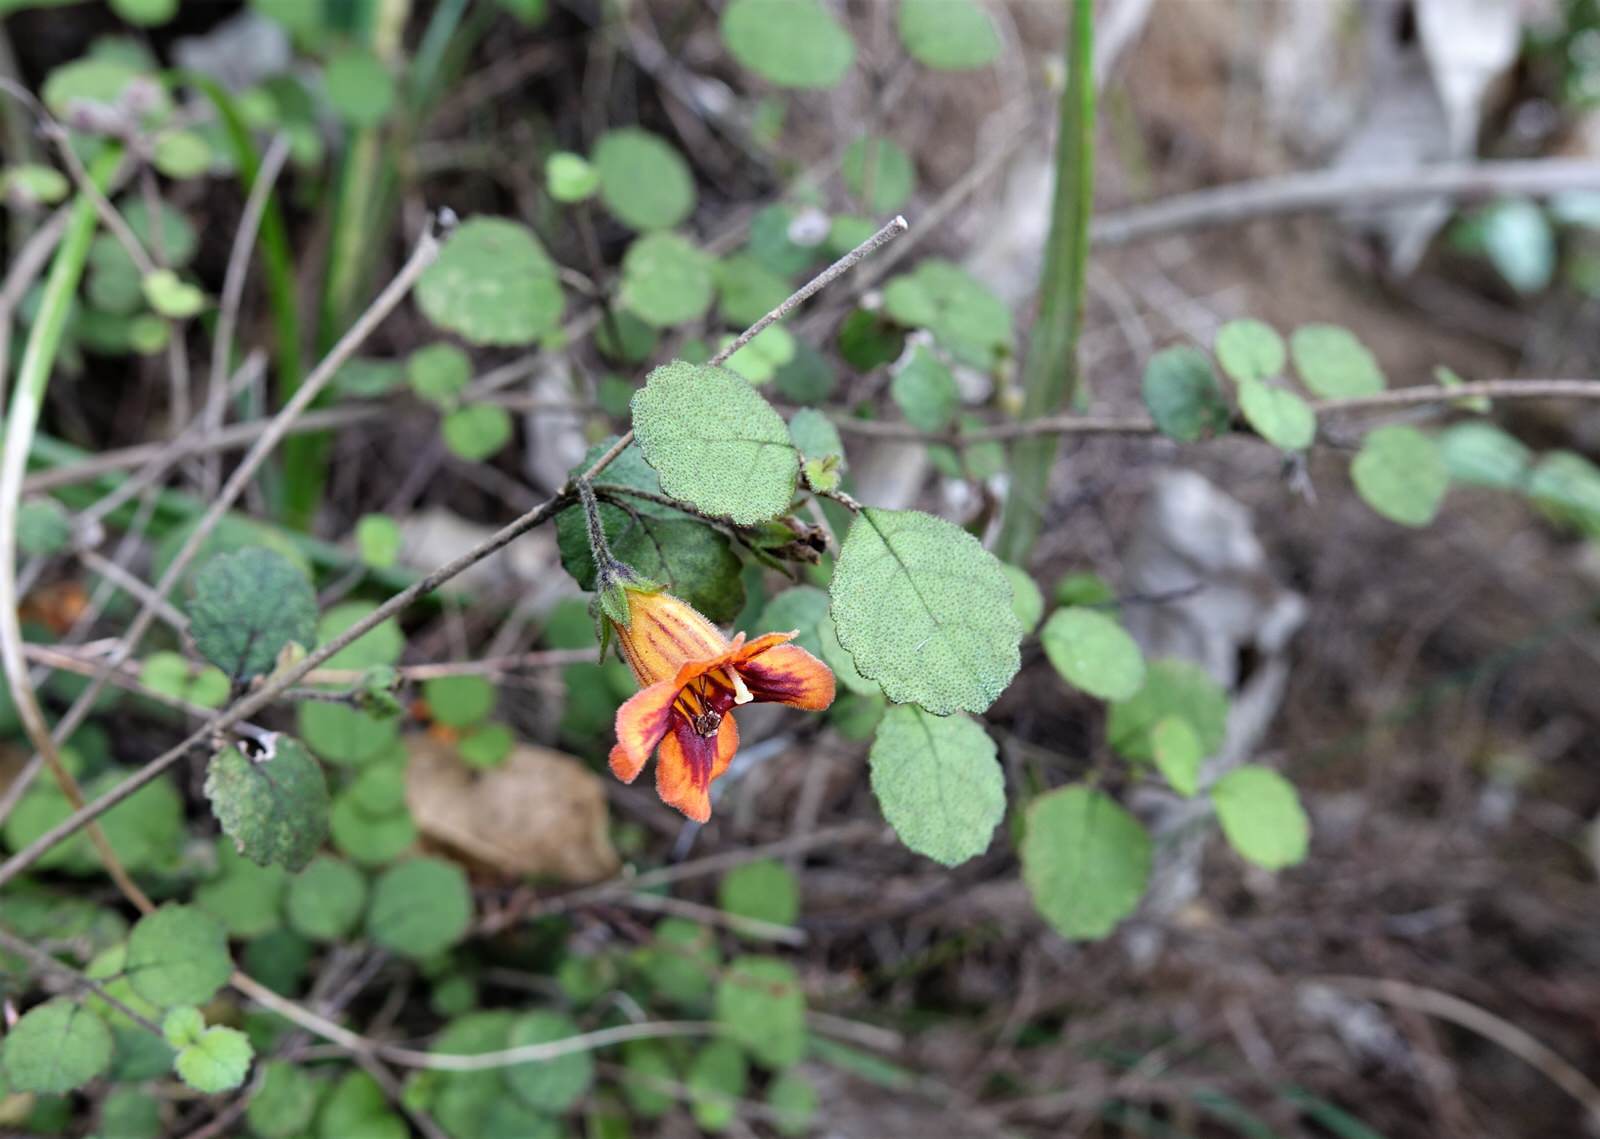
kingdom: Plantae
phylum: Tracheophyta
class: Magnoliopsida
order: Lamiales
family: Gesneriaceae
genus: Rhabdothamnus
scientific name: Rhabdothamnus solandri
